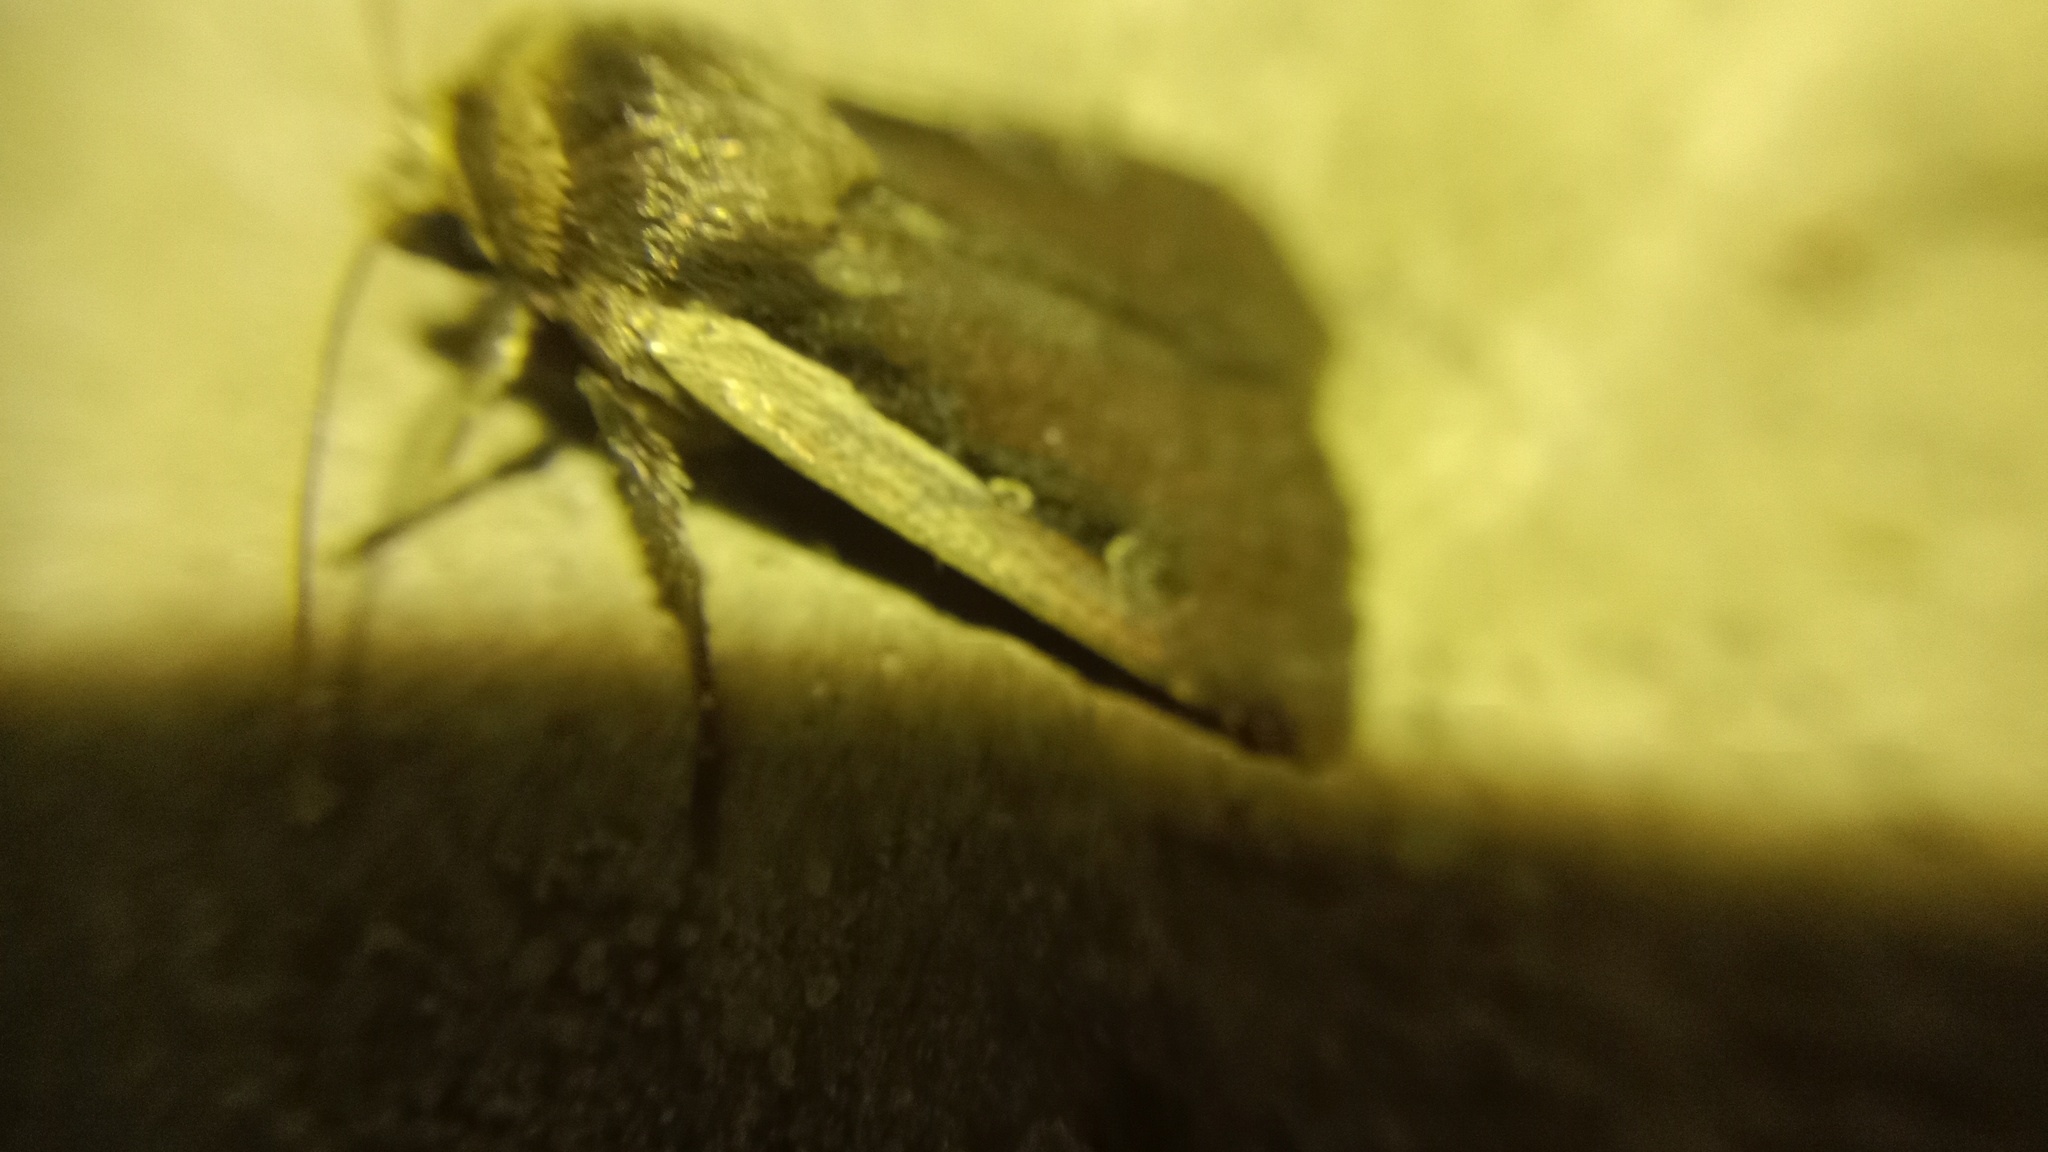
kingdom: Animalia
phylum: Arthropoda
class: Insecta
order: Lepidoptera
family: Noctuidae
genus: Ochropleura
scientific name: Ochropleura plecta
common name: Flame shoulder
